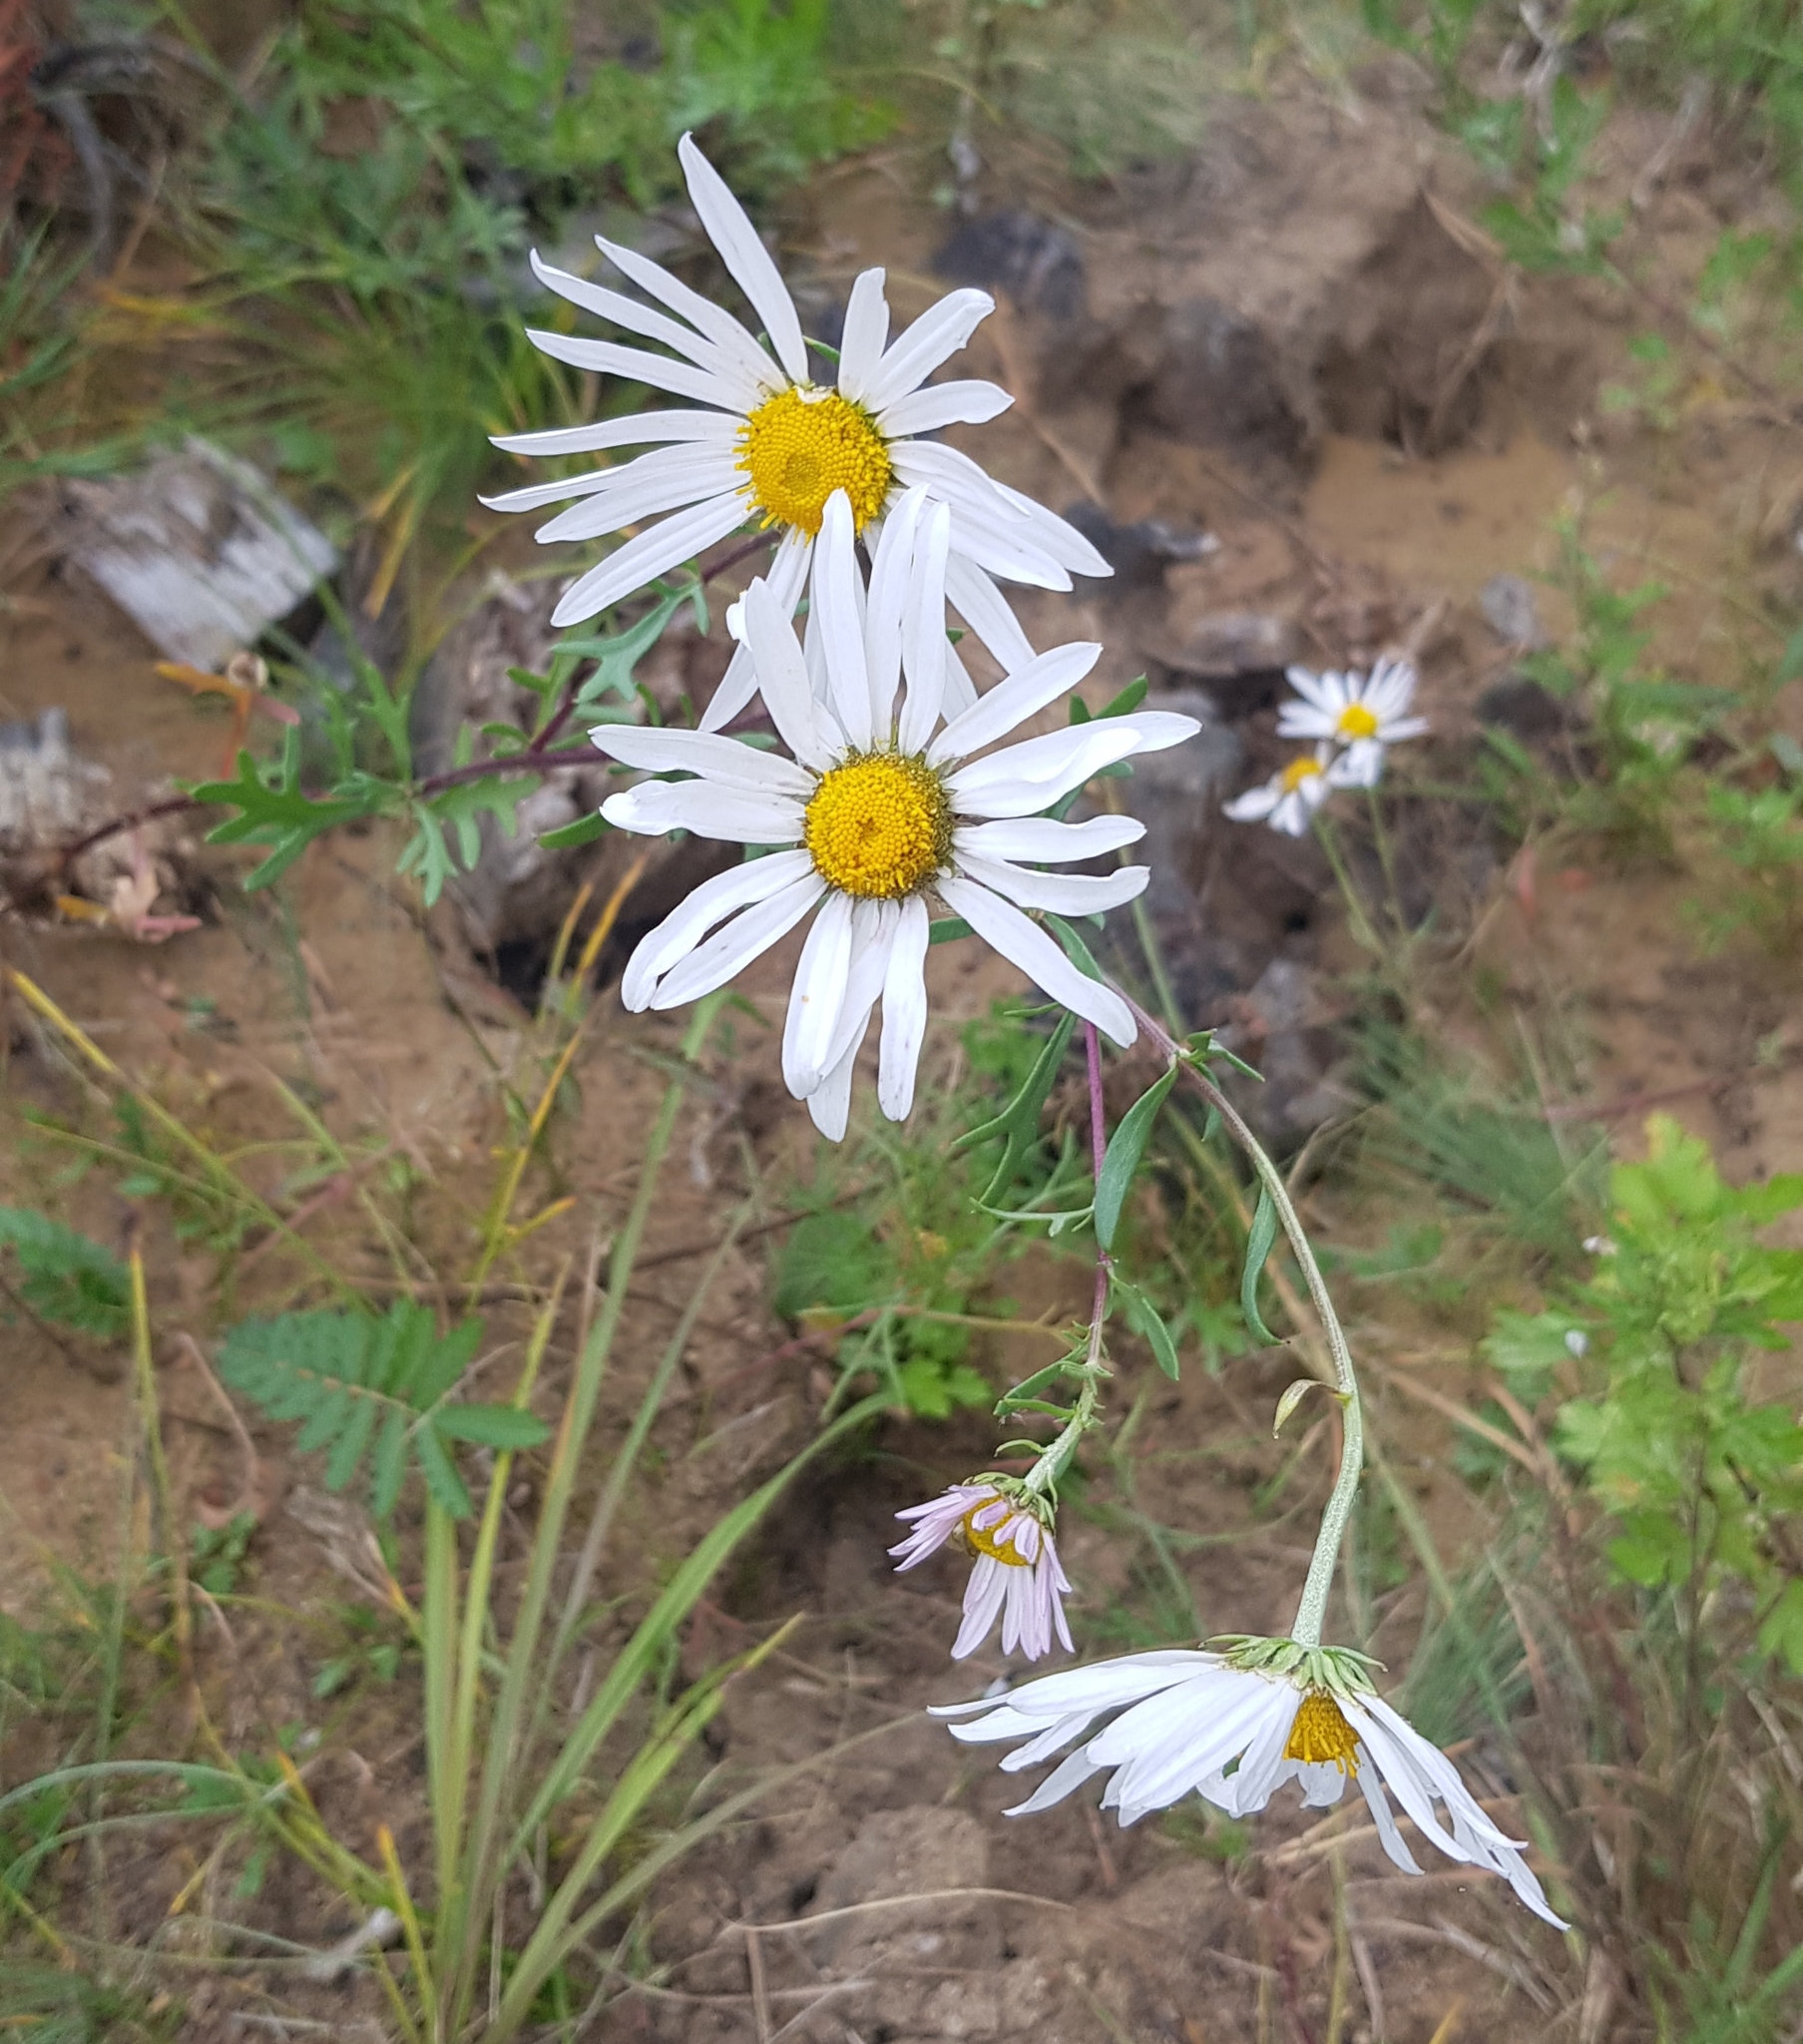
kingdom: Plantae
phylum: Tracheophyta
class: Magnoliopsida
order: Asterales
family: Asteraceae
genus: Chrysanthemum
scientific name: Chrysanthemum zawadzkii
